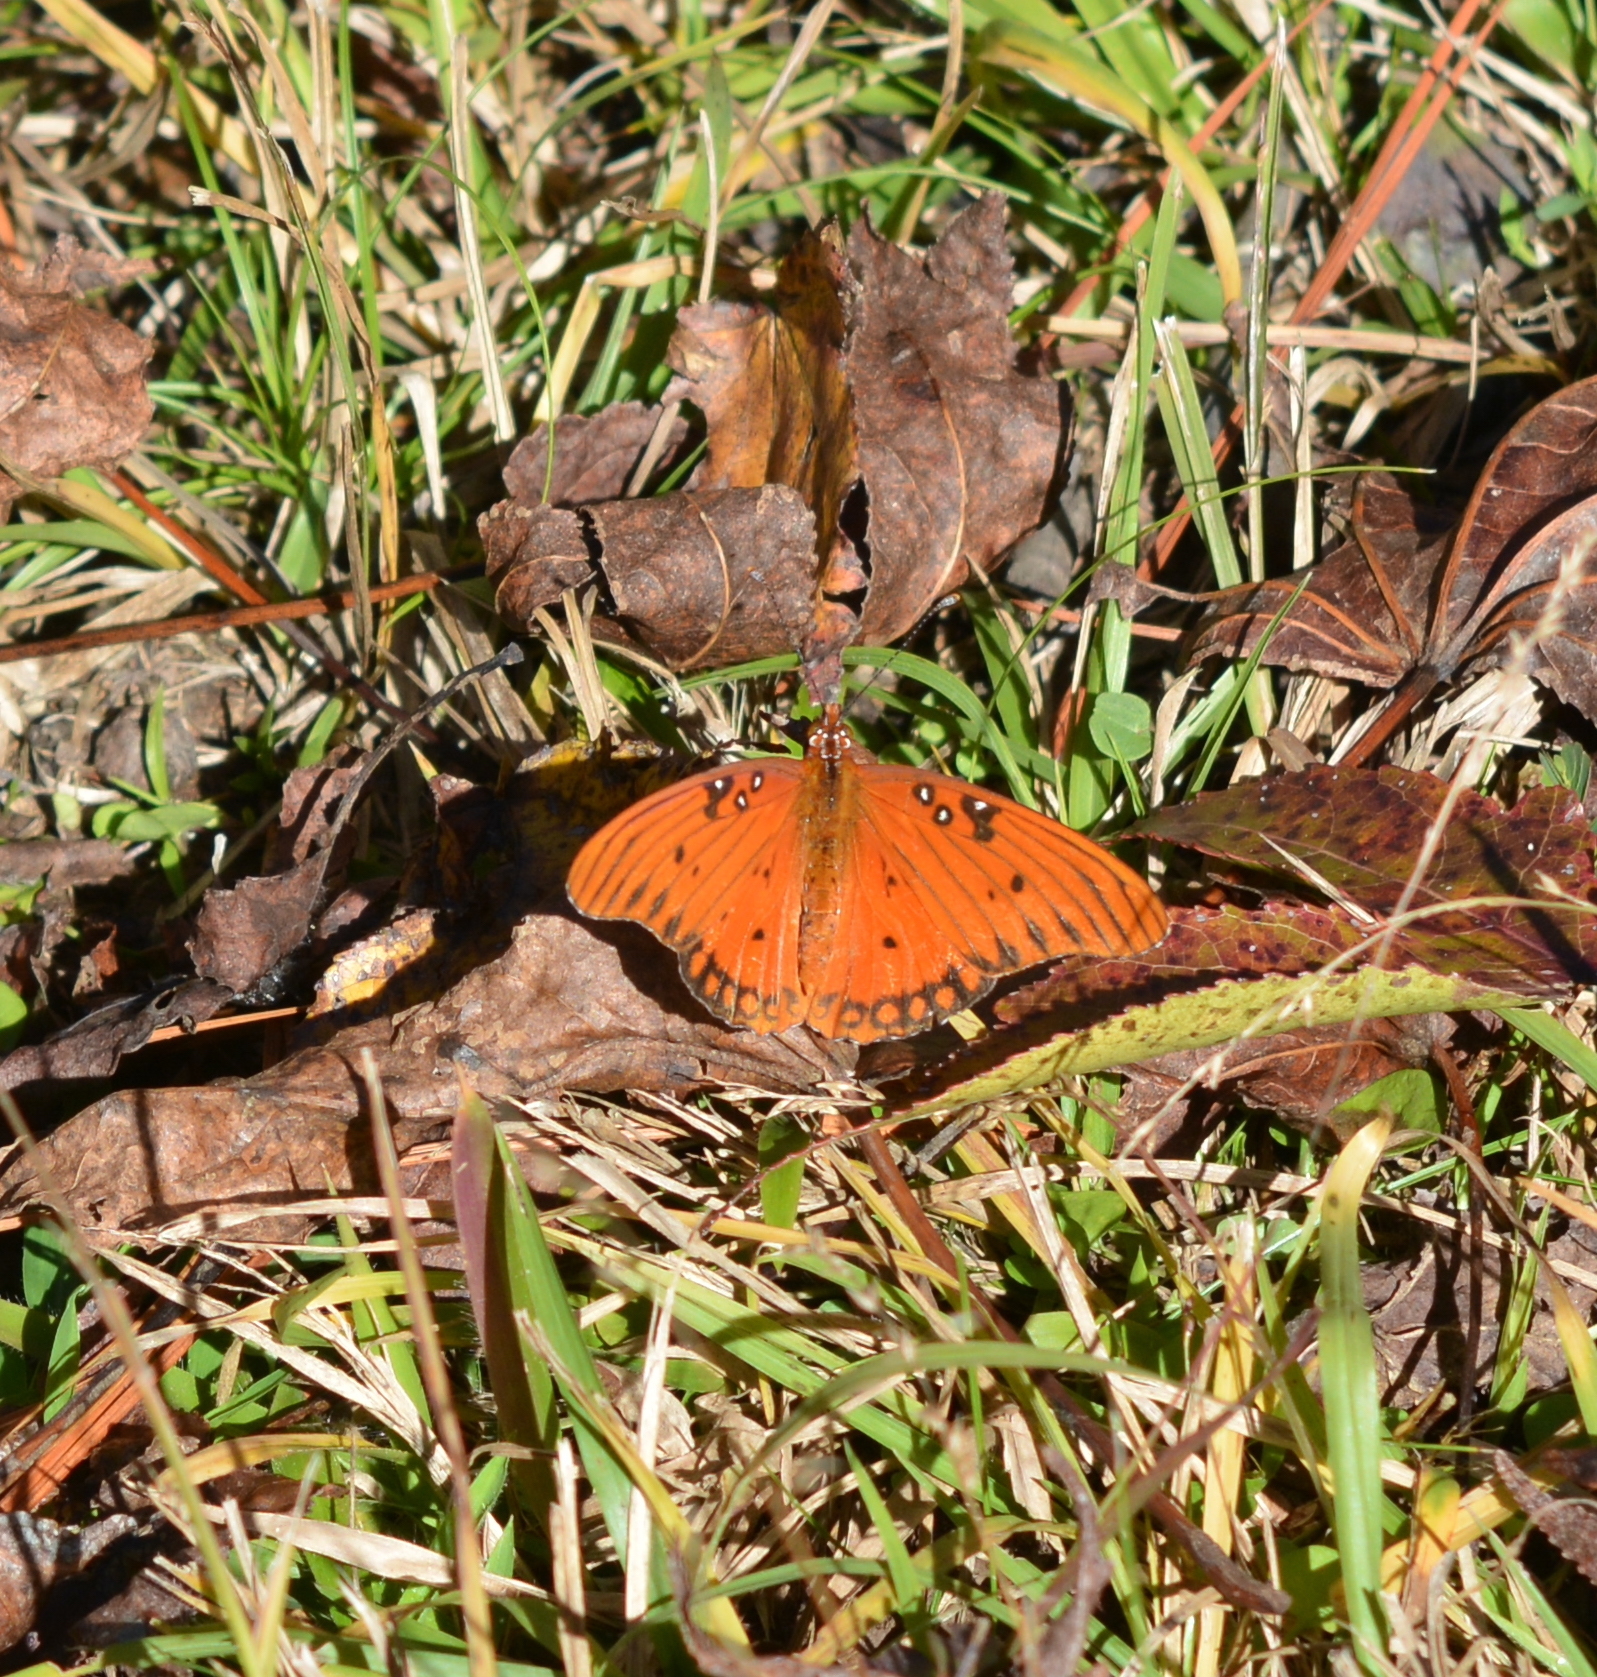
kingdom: Animalia
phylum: Arthropoda
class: Insecta
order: Lepidoptera
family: Nymphalidae
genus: Dione
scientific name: Dione vanillae
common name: Gulf fritillary
